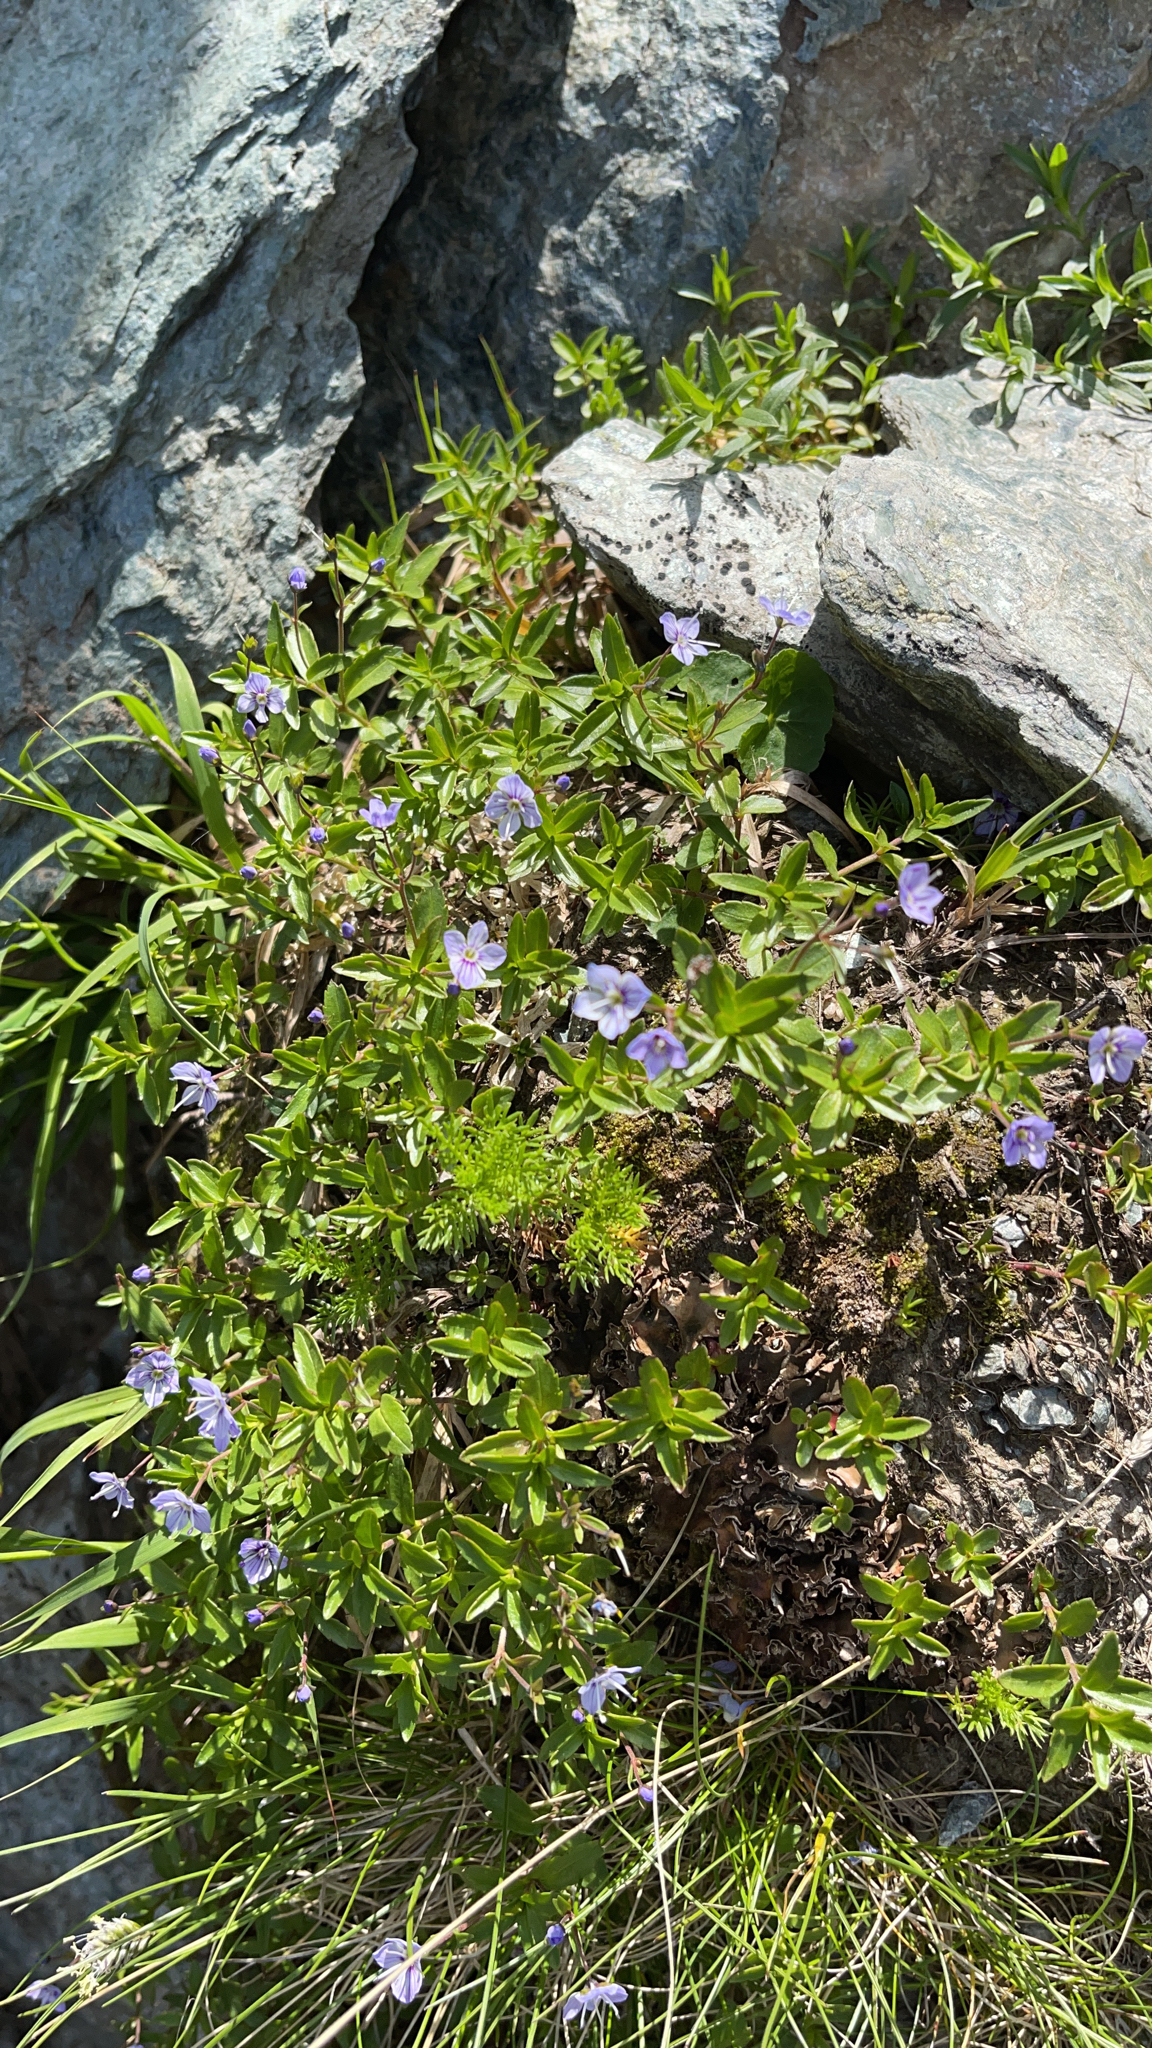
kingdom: Plantae
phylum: Tracheophyta
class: Magnoliopsida
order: Lamiales
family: Plantaginaceae
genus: Veronica
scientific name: Veronica baumgartenii
